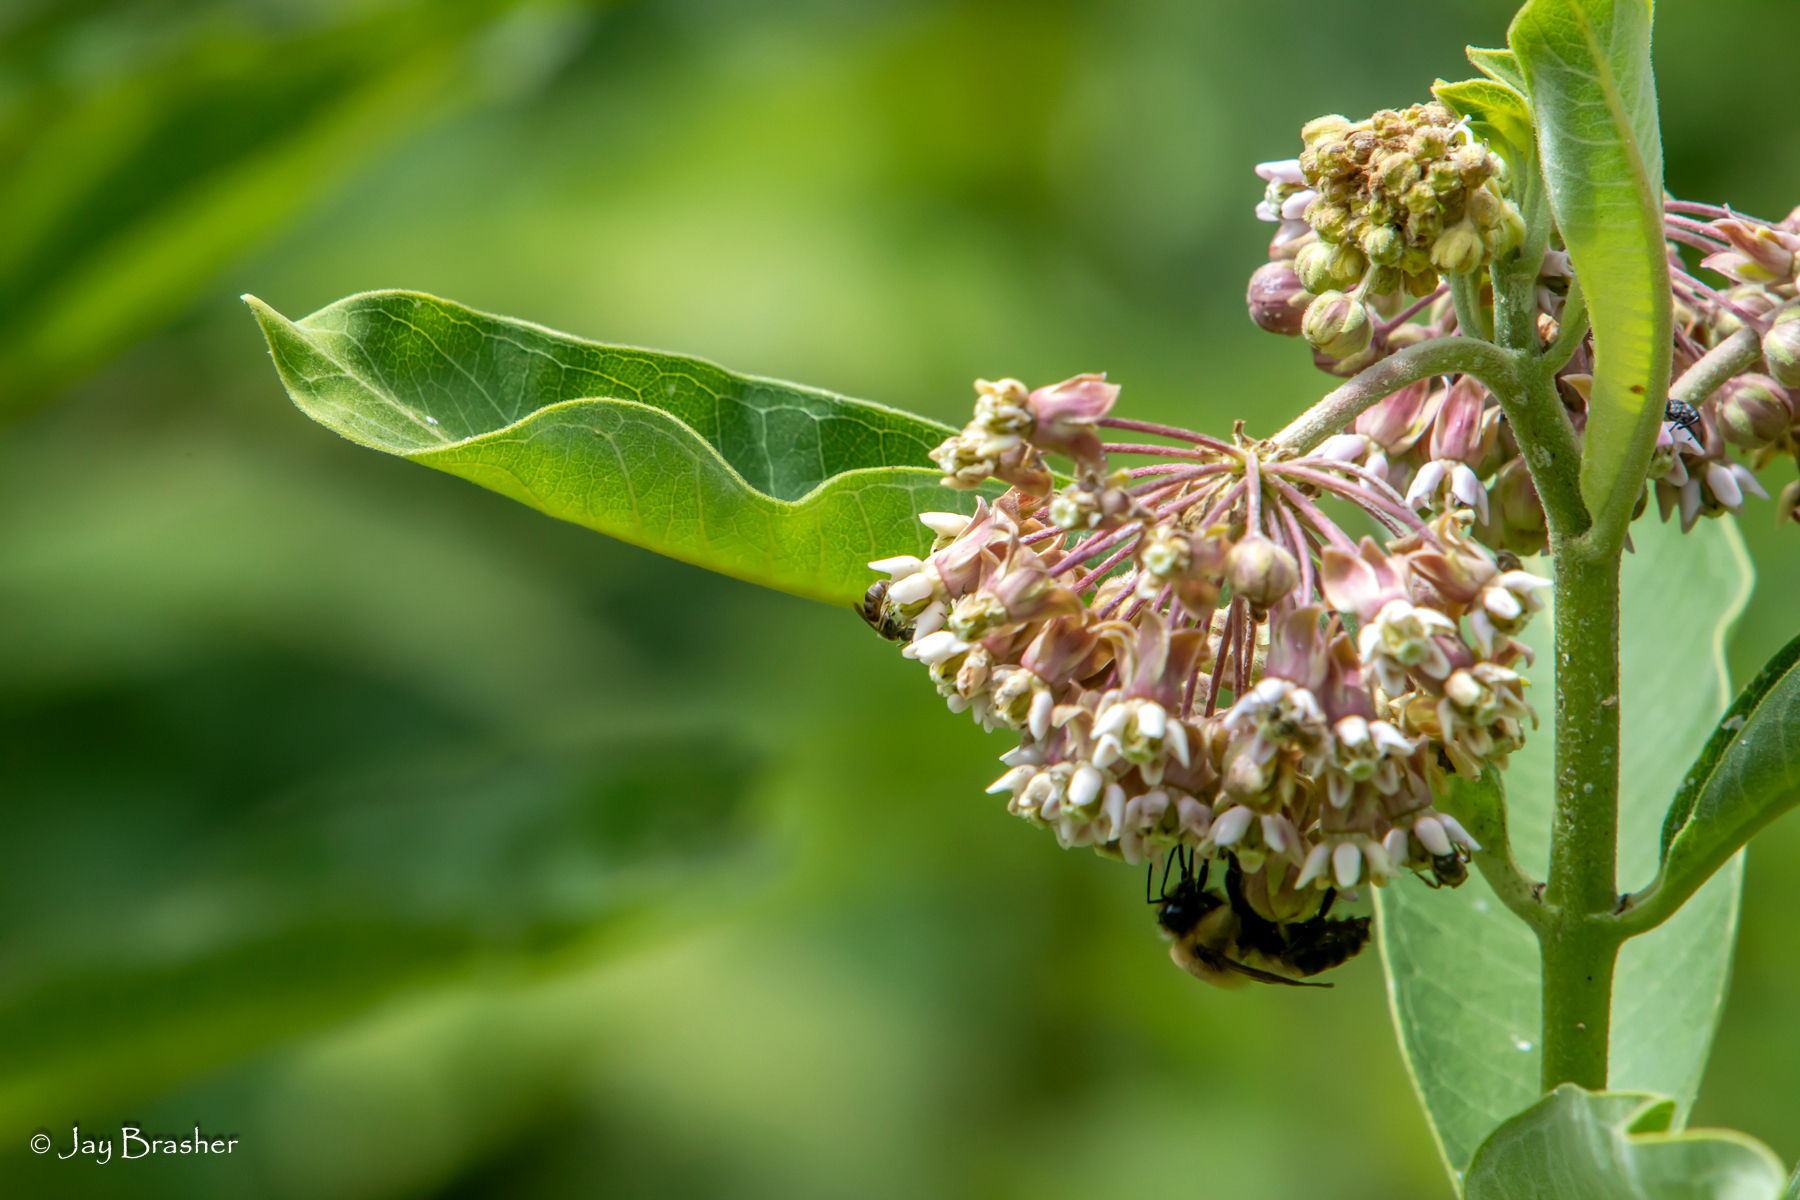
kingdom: Plantae
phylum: Tracheophyta
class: Magnoliopsida
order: Gentianales
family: Apocynaceae
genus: Asclepias
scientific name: Asclepias syriaca
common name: Common milkweed
